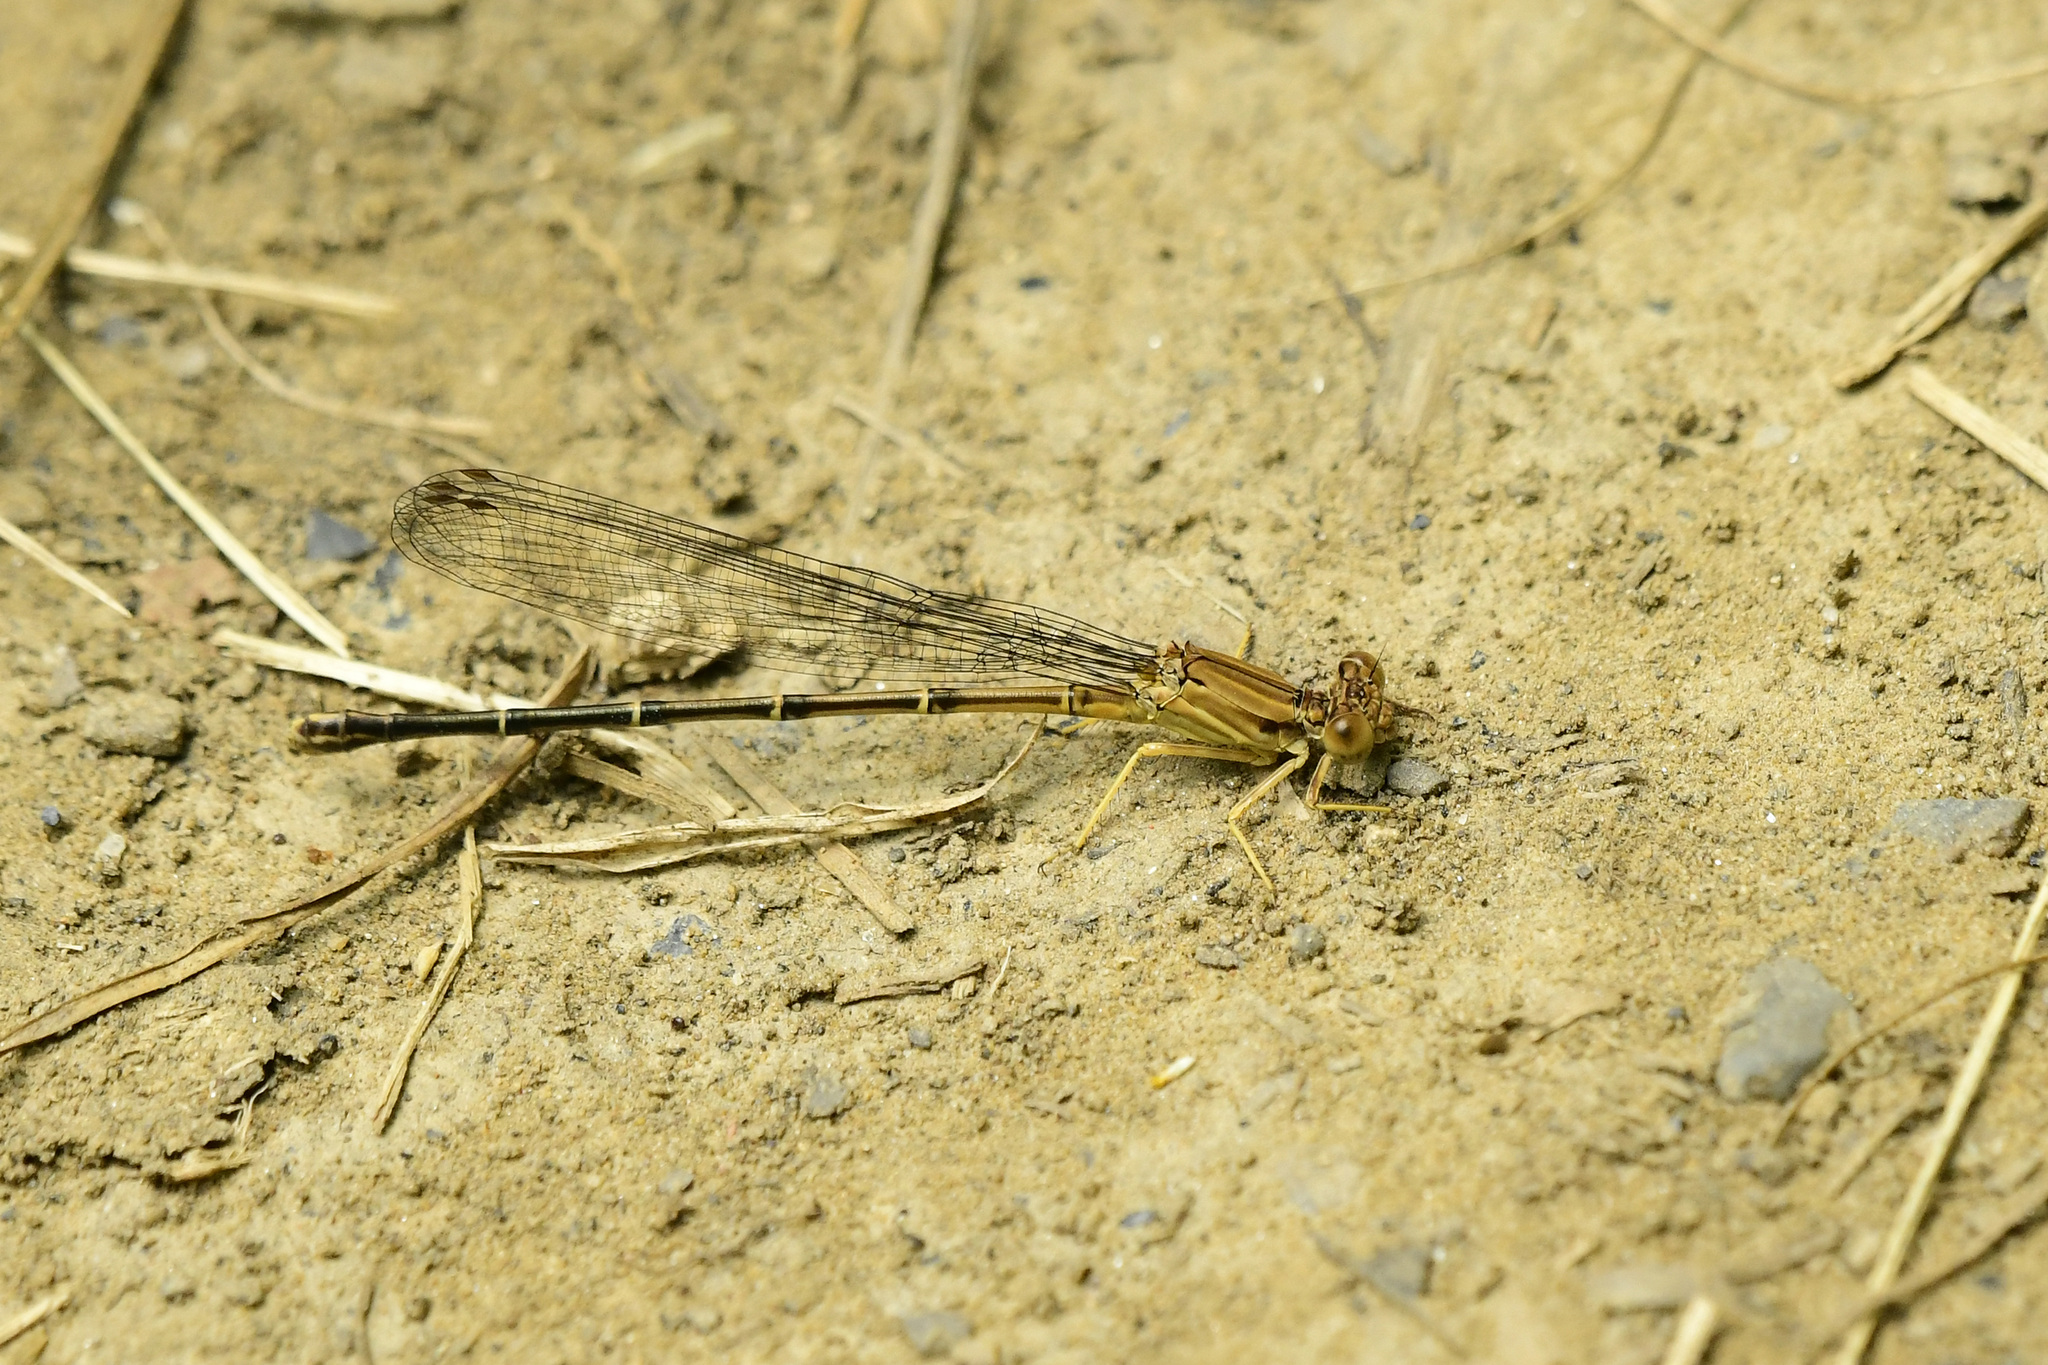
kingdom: Animalia
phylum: Arthropoda
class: Insecta
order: Odonata
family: Coenagrionidae
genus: Argia
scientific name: Argia apicalis
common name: Blue-fronted dancer
